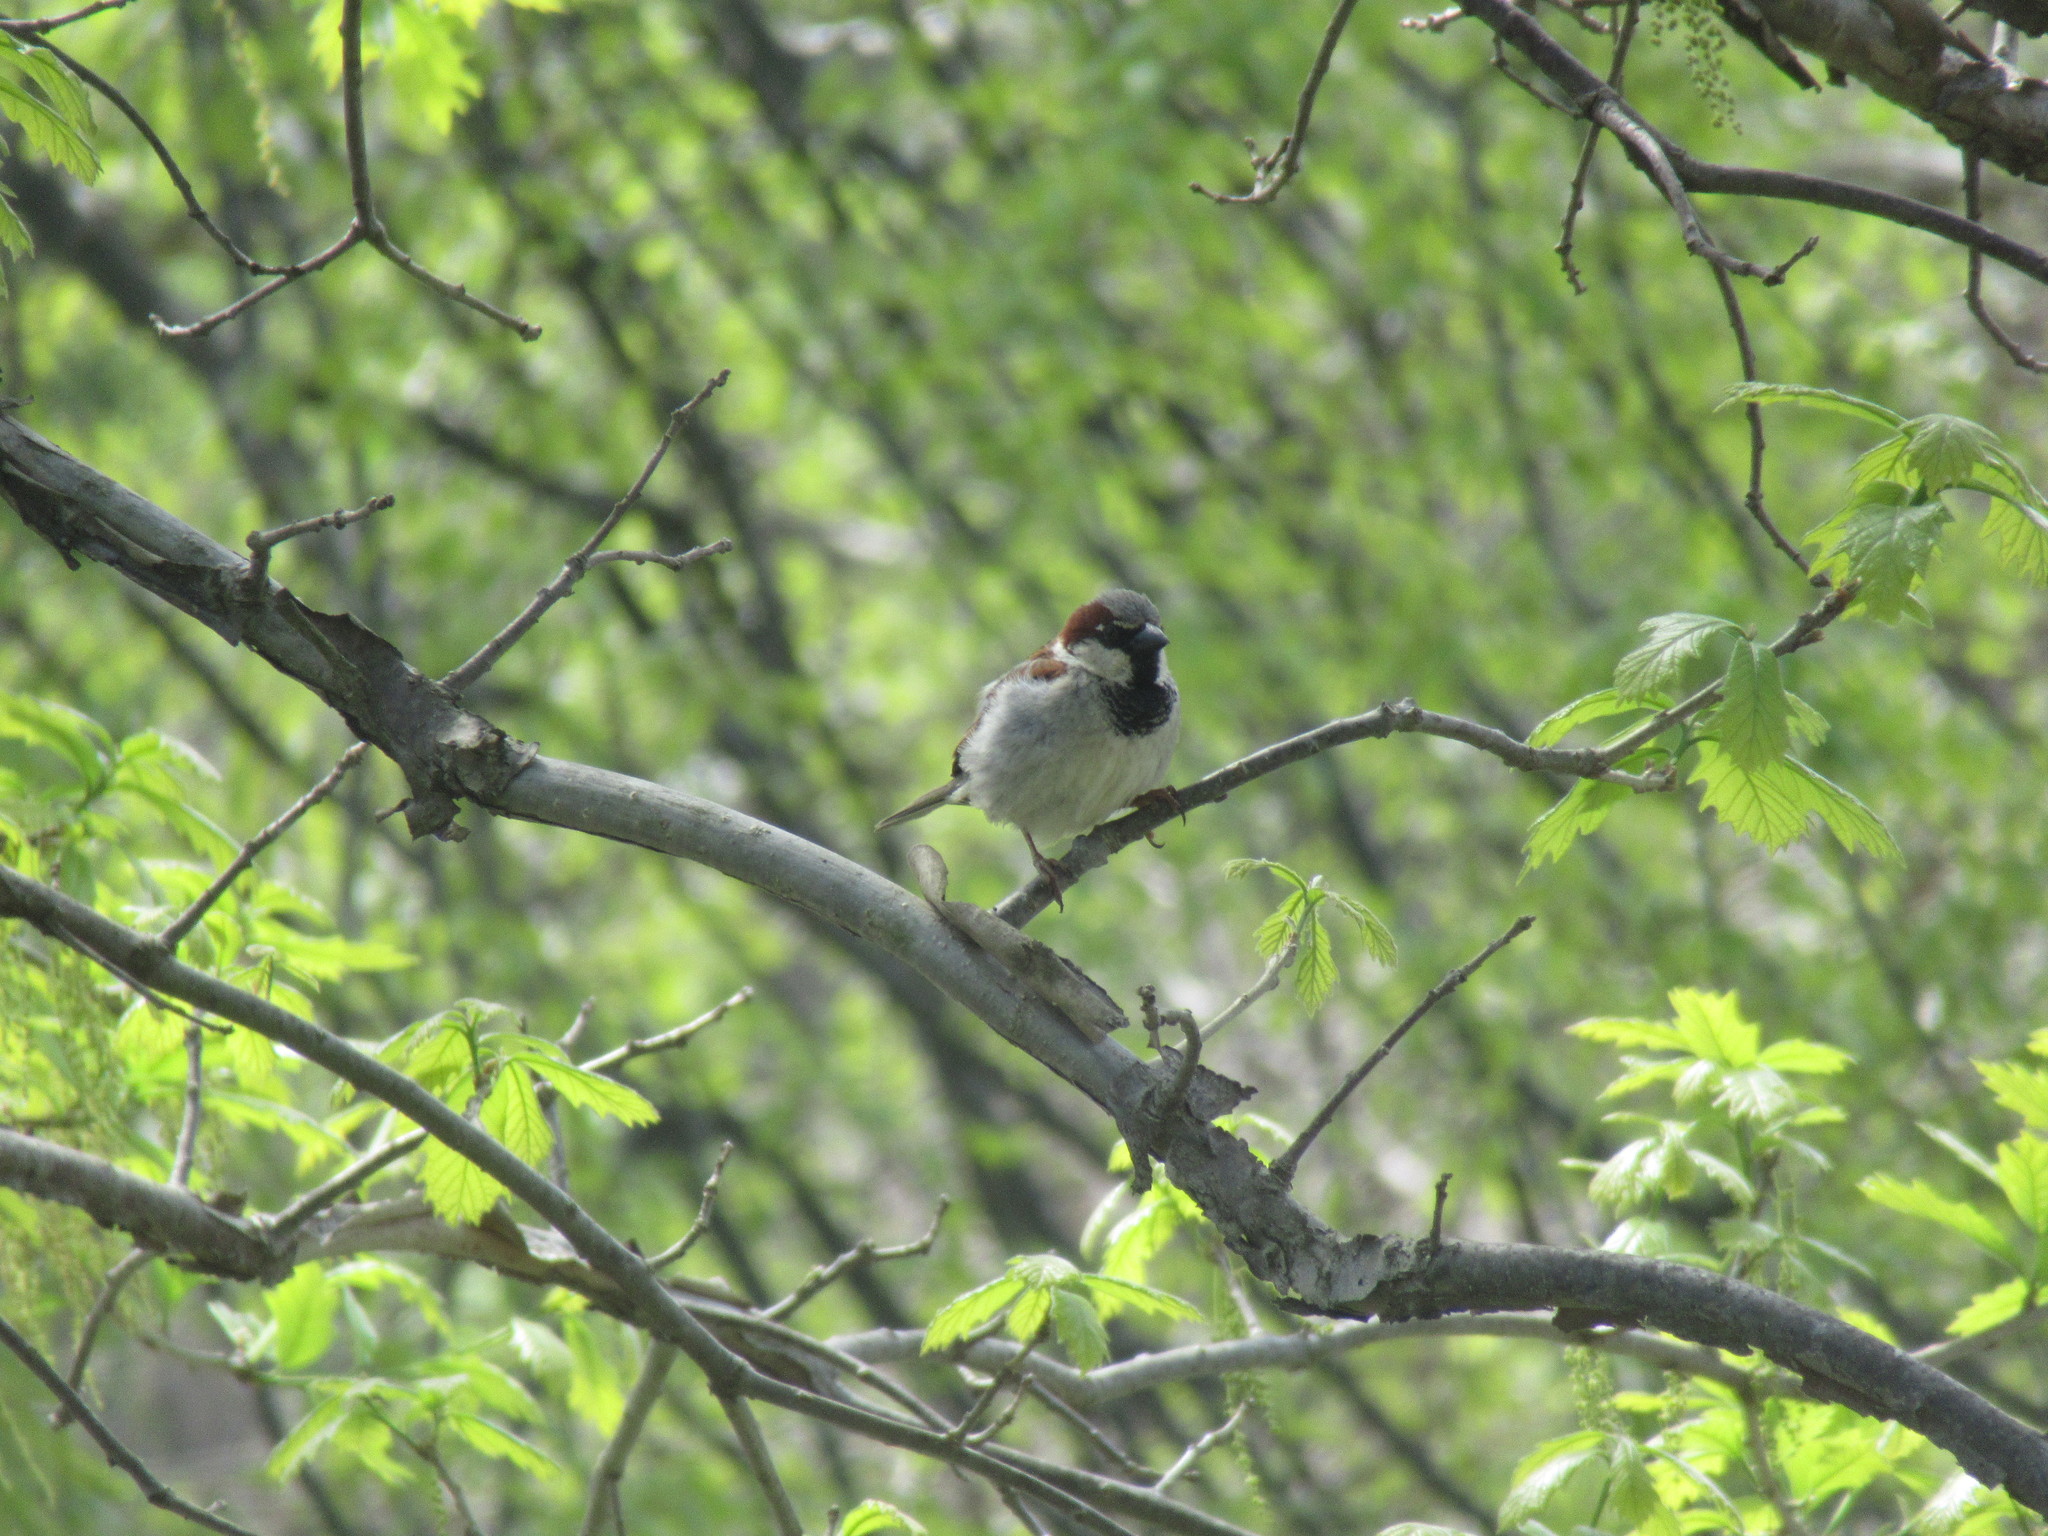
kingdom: Animalia
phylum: Chordata
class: Aves
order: Passeriformes
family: Passeridae
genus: Passer
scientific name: Passer domesticus
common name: House sparrow
